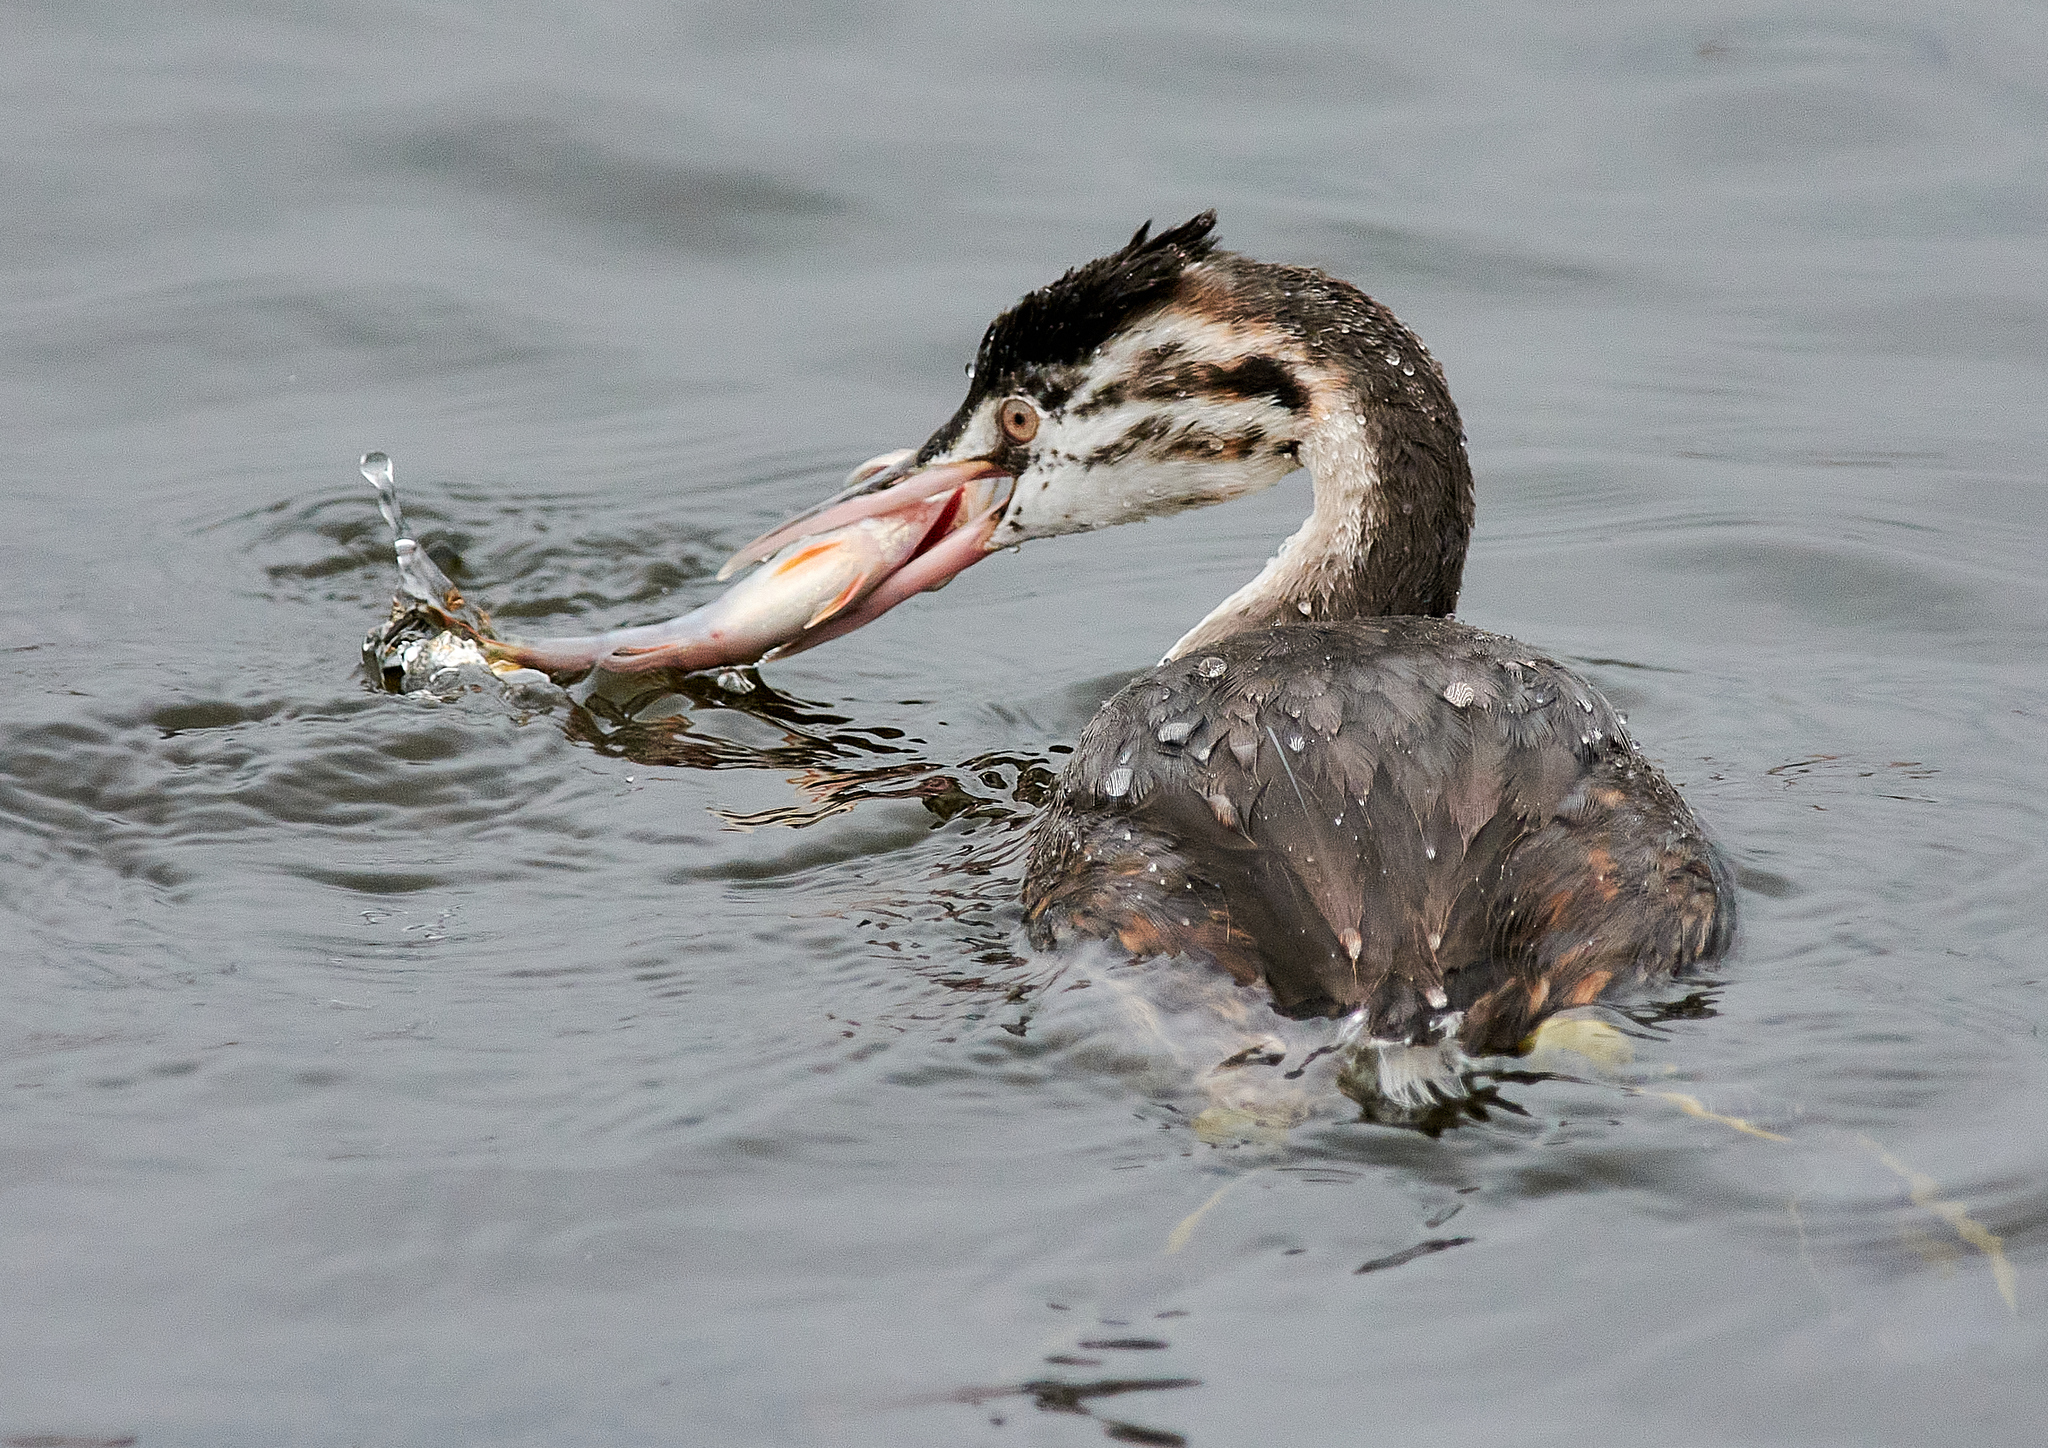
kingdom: Animalia
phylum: Chordata
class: Aves
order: Podicipediformes
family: Podicipedidae
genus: Podiceps
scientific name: Podiceps cristatus
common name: Great crested grebe
